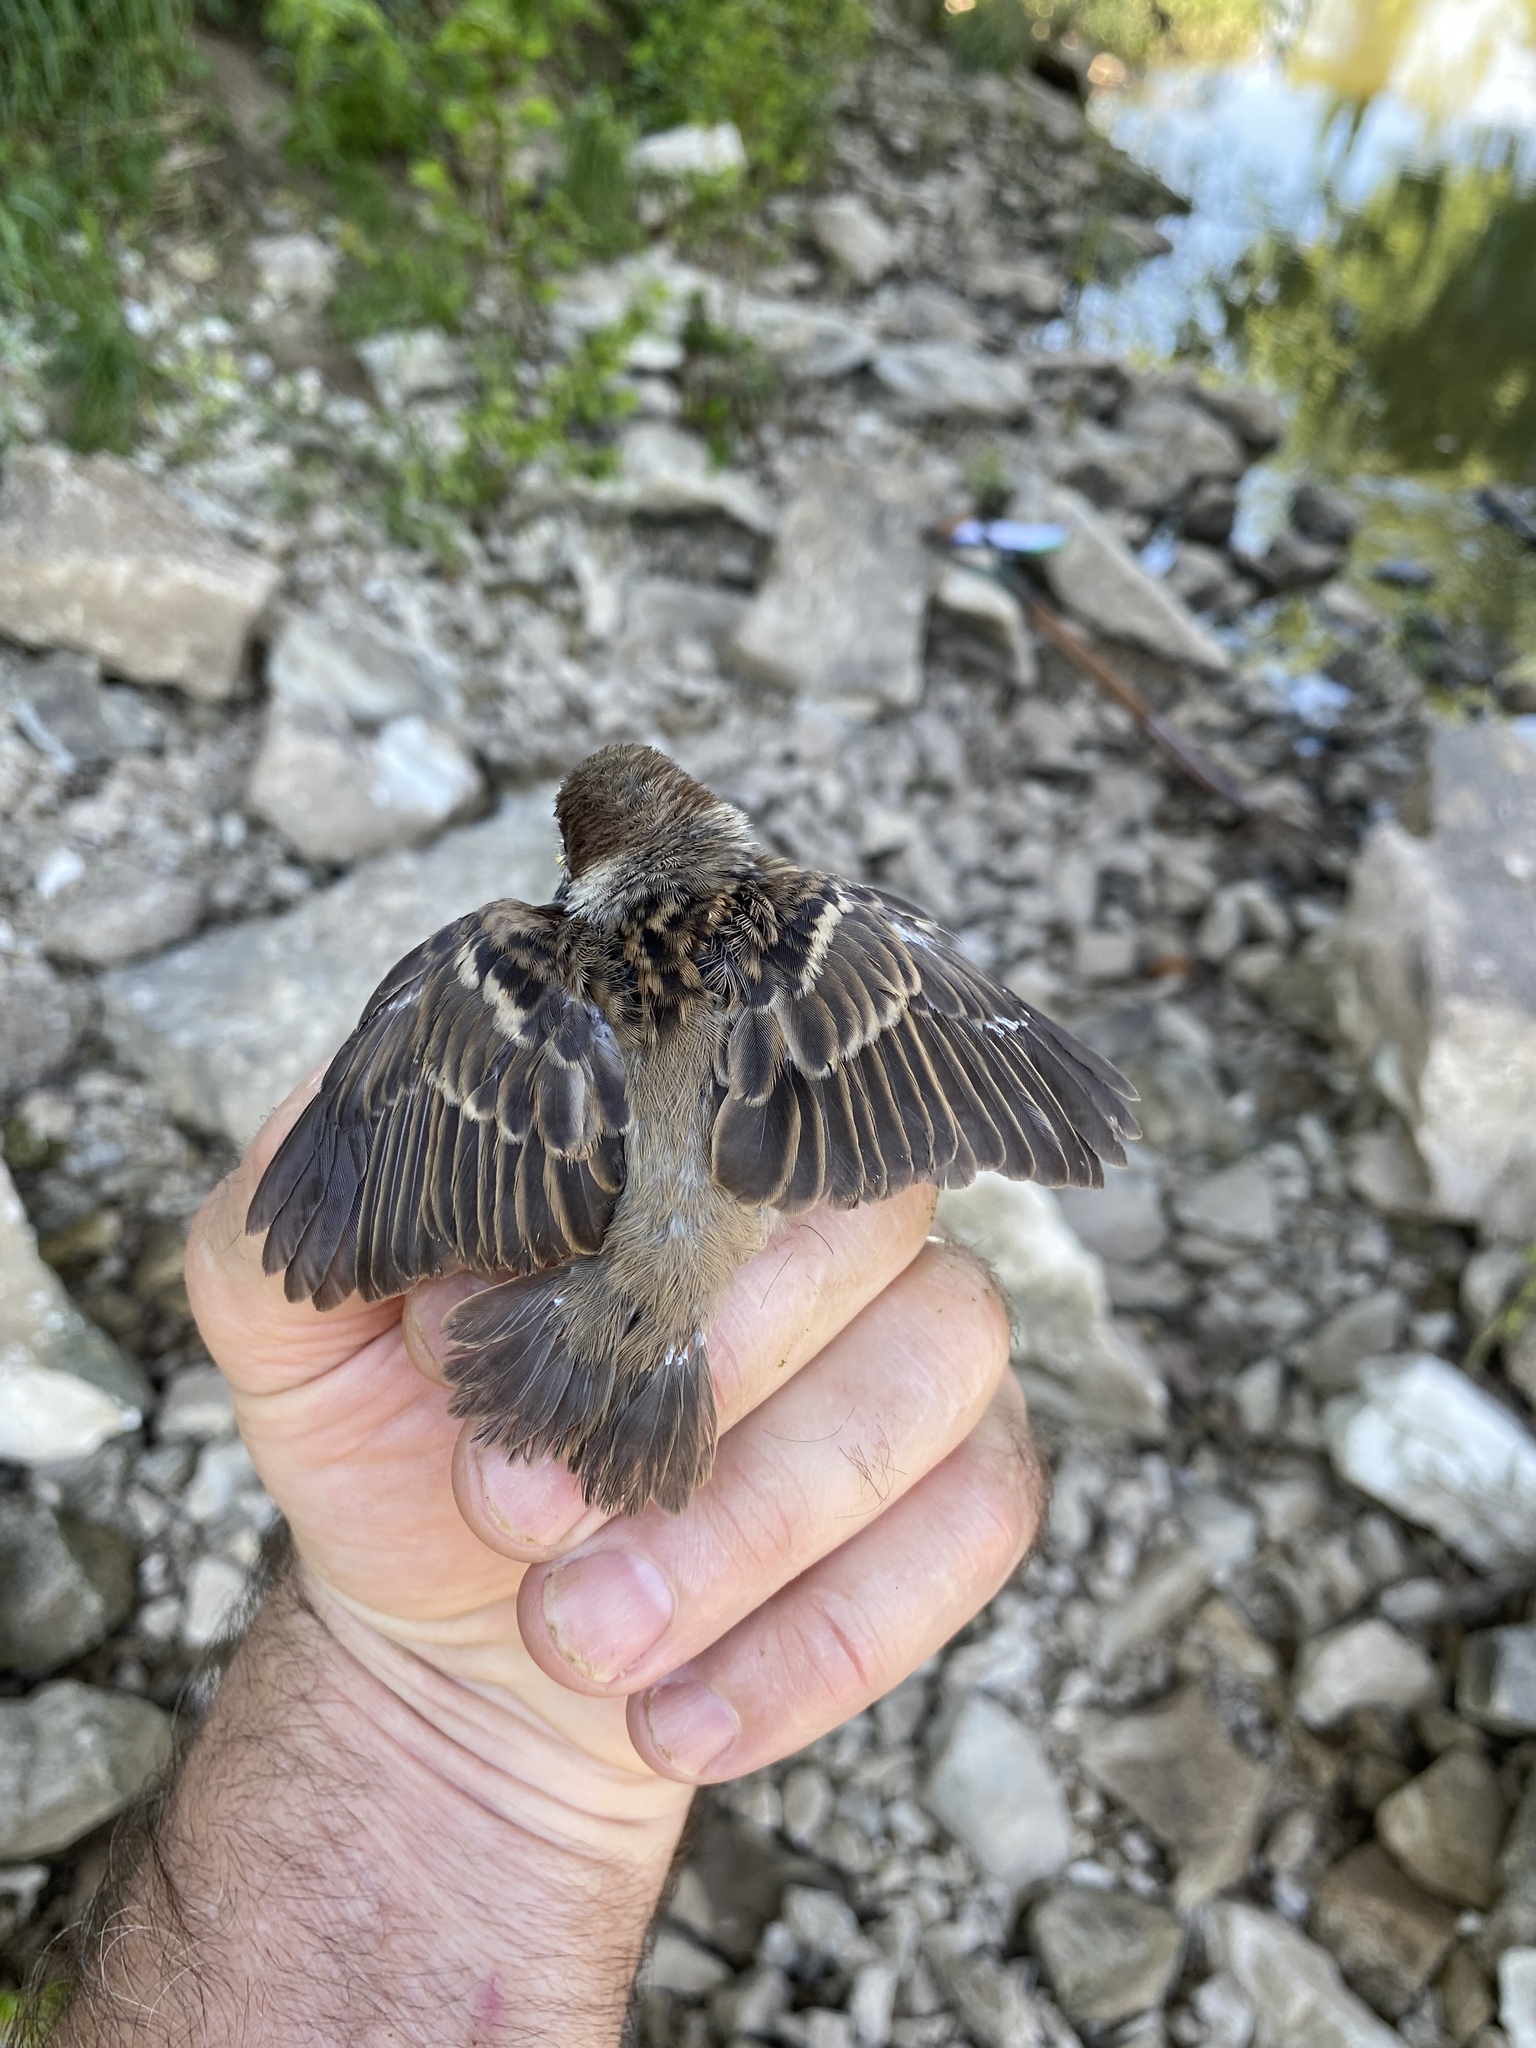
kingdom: Animalia
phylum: Chordata
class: Aves
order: Passeriformes
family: Passeridae
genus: Passer
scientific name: Passer montanus
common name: Eurasian tree sparrow
